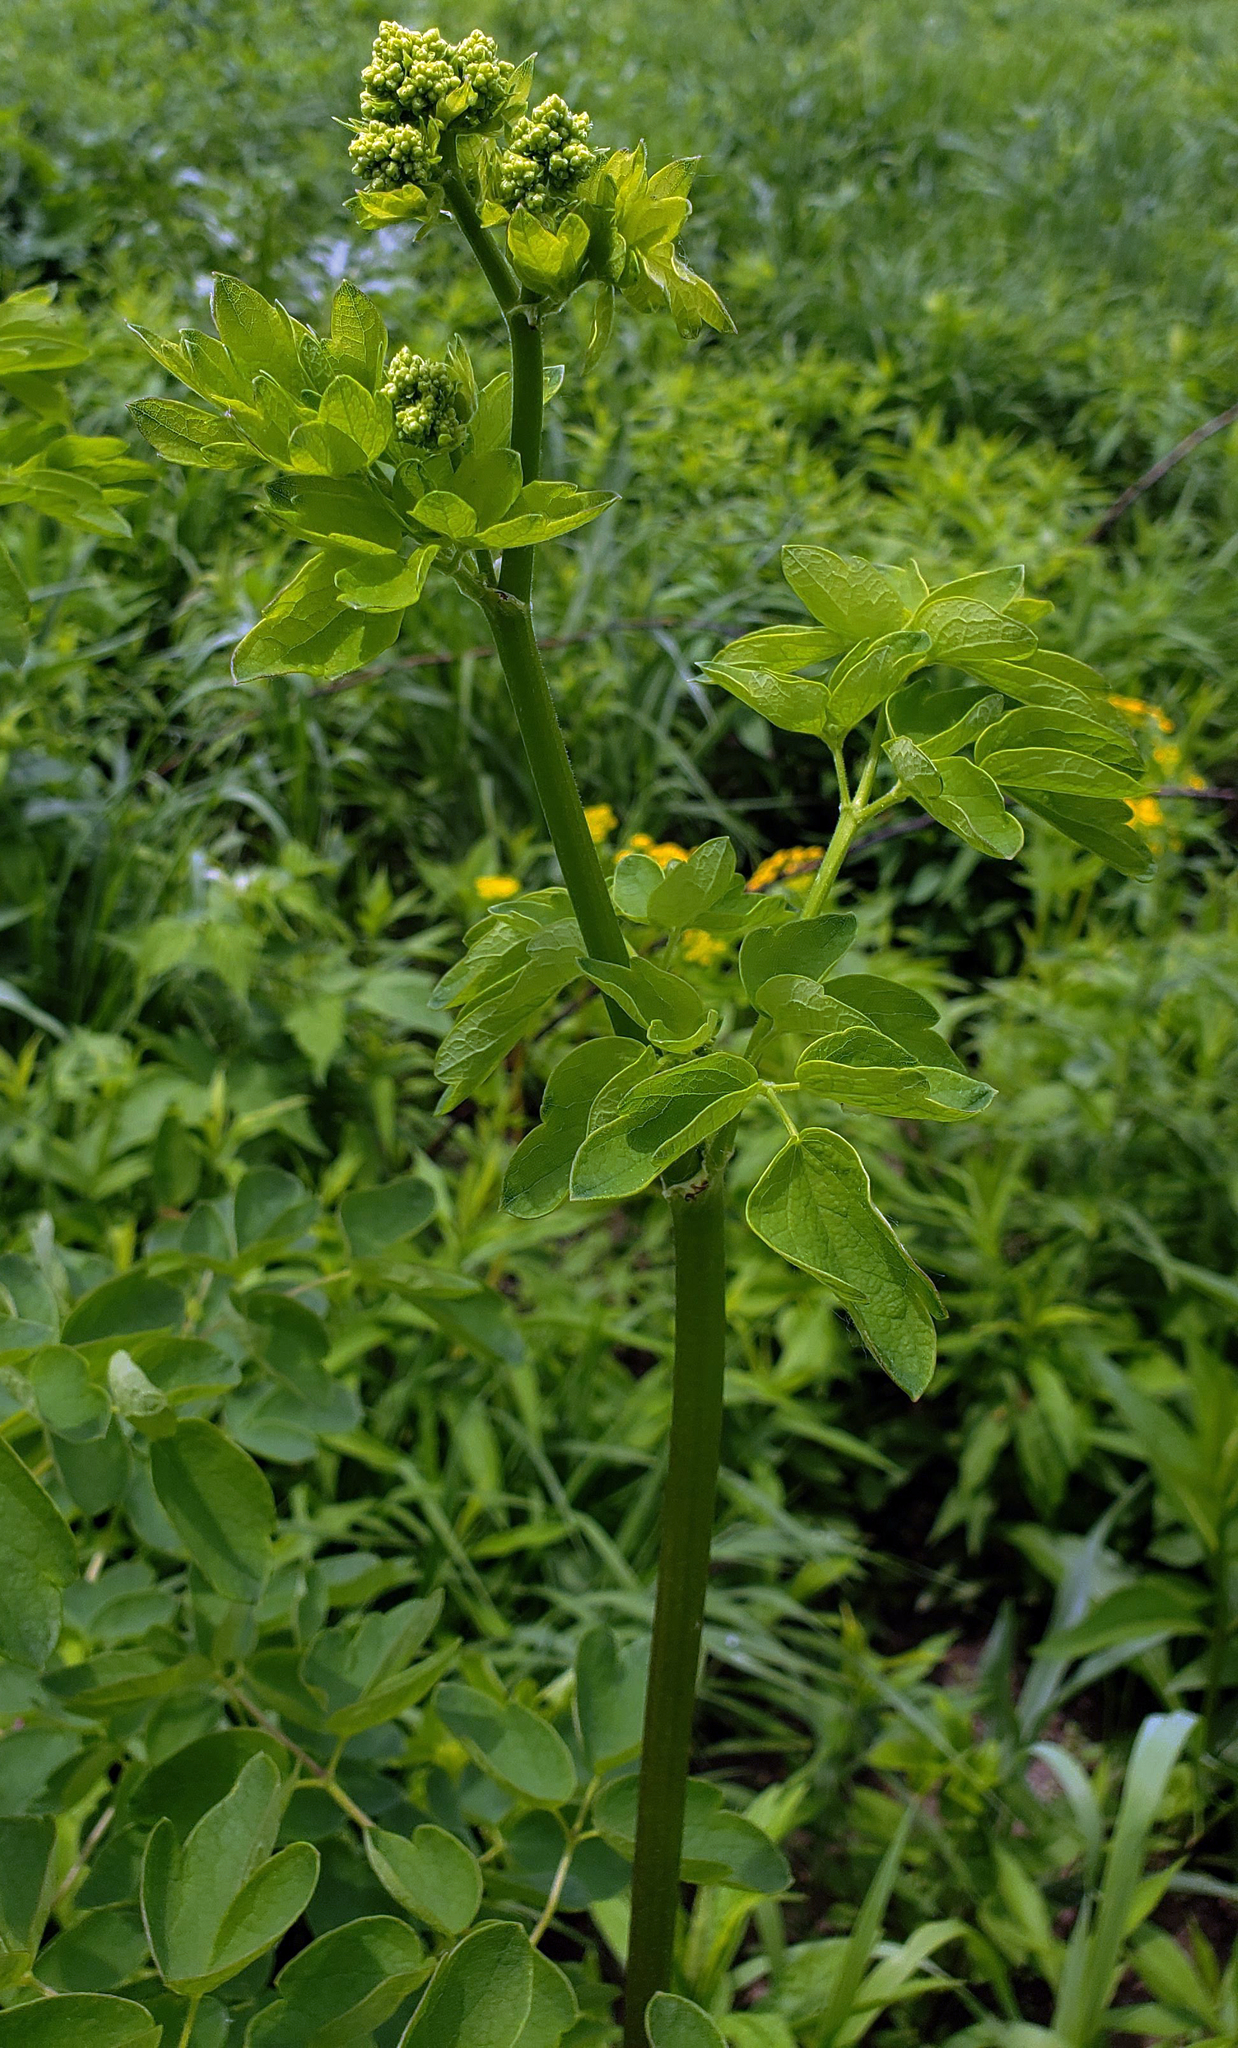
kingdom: Plantae
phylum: Tracheophyta
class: Magnoliopsida
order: Ranunculales
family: Ranunculaceae
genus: Thalictrum
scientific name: Thalictrum dasycarpum
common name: Purple meadow-rue
